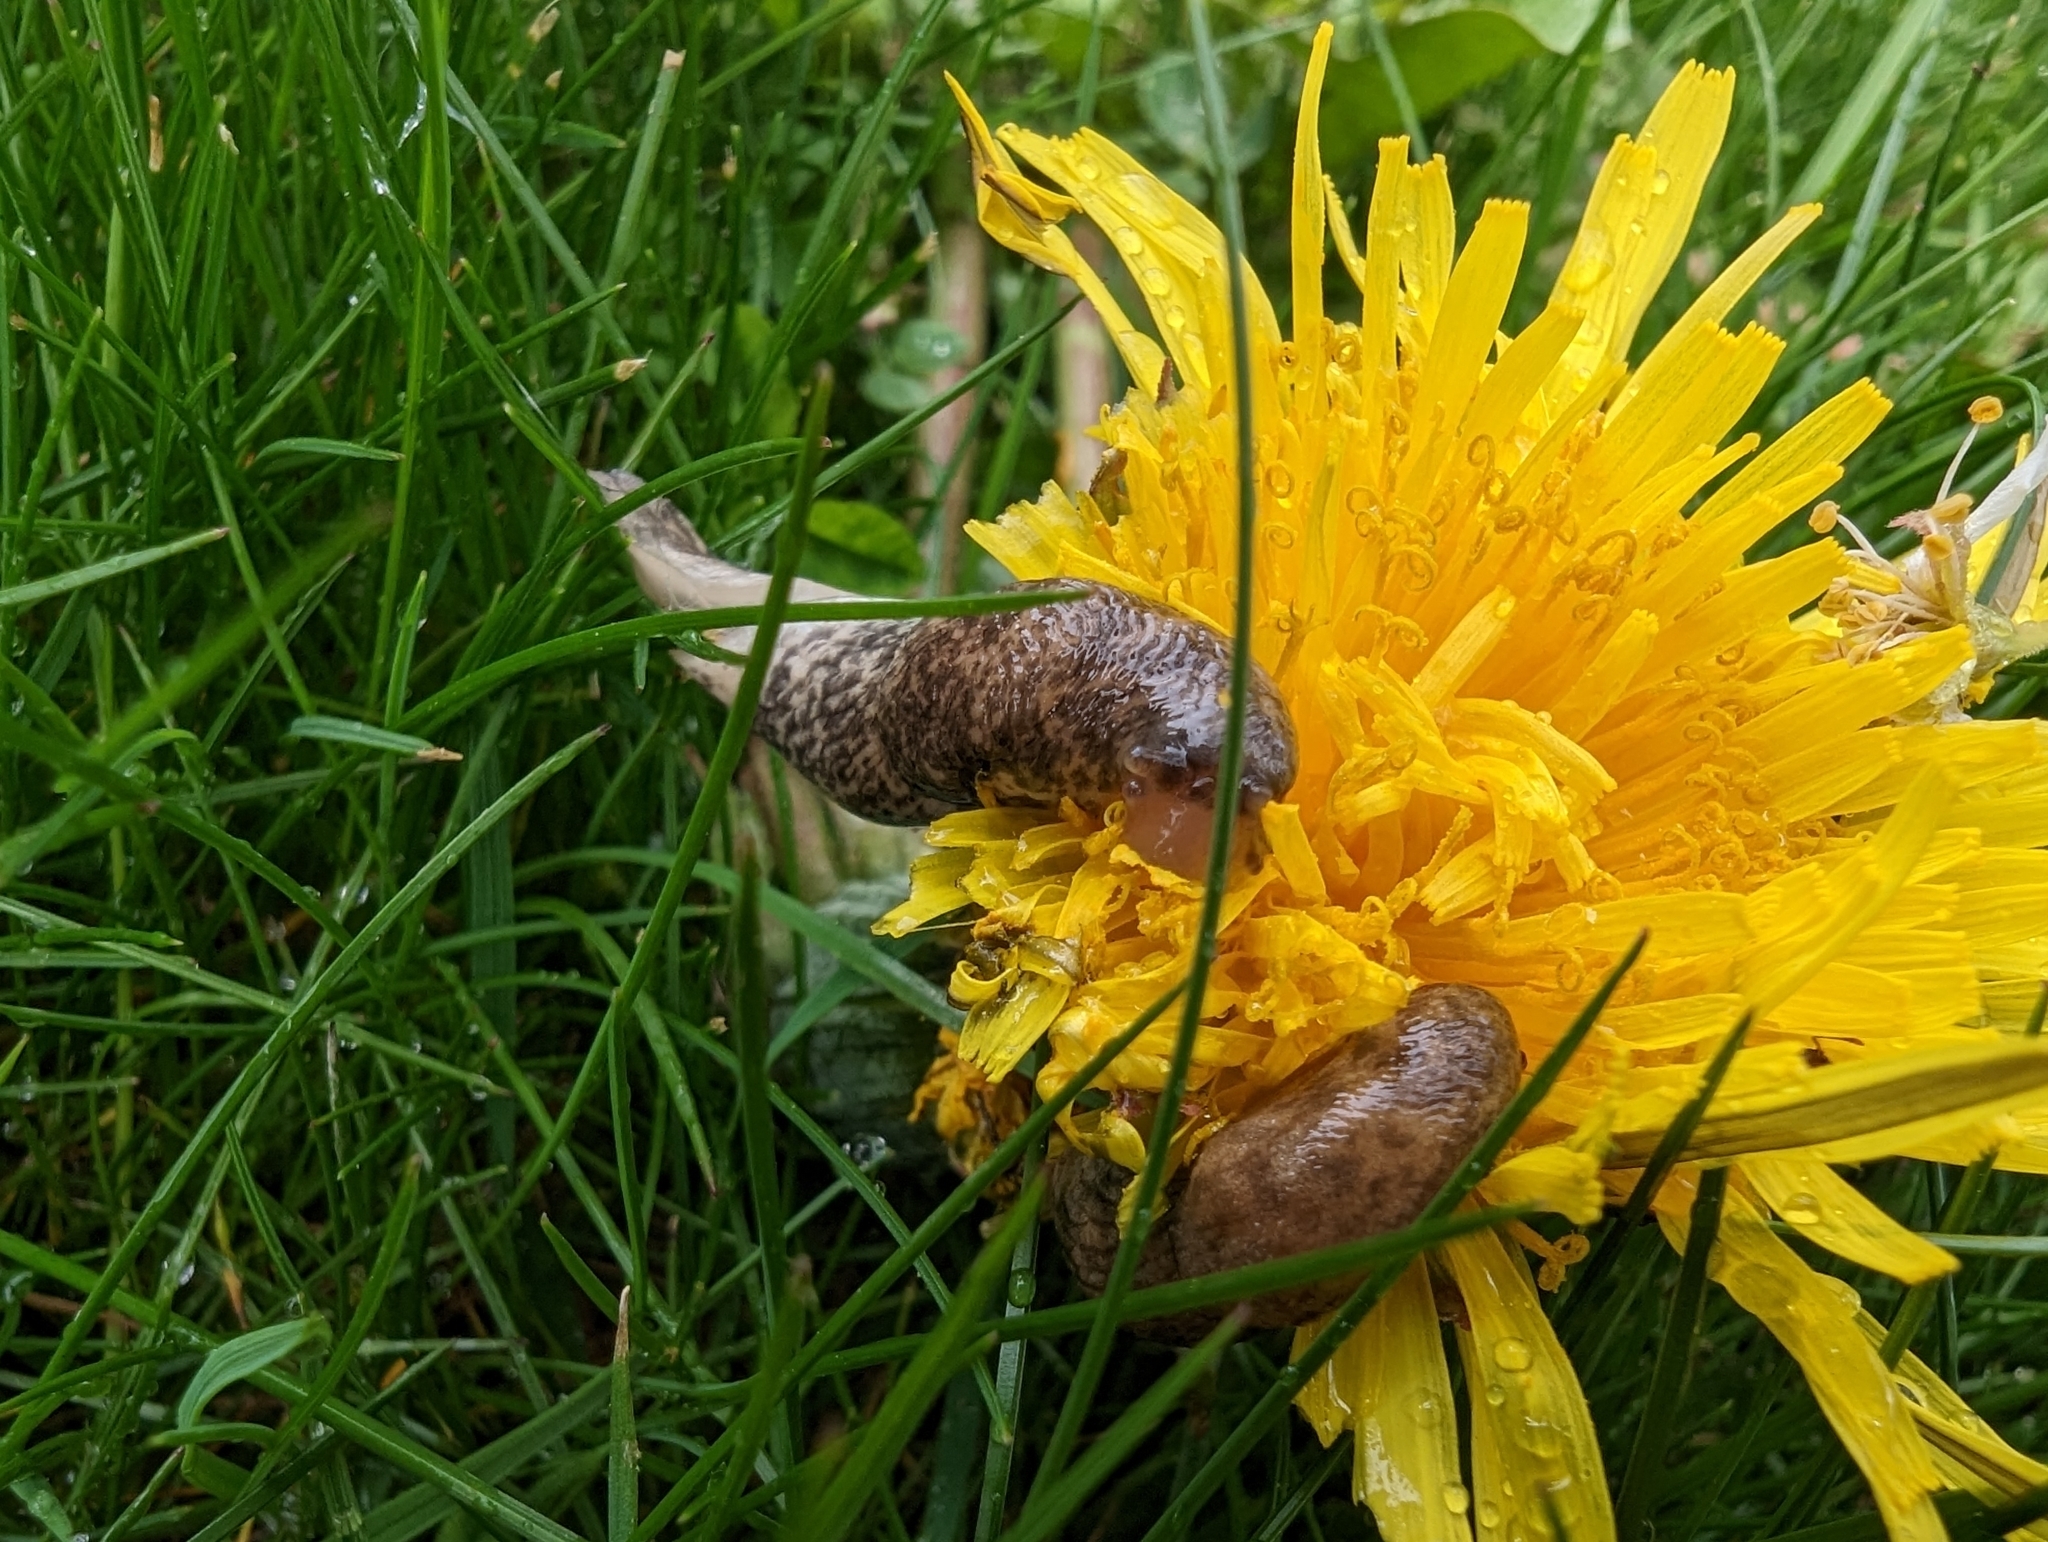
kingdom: Animalia
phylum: Mollusca
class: Gastropoda
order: Stylommatophora
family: Agriolimacidae
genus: Deroceras
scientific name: Deroceras reticulatum
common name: Gray field slug
